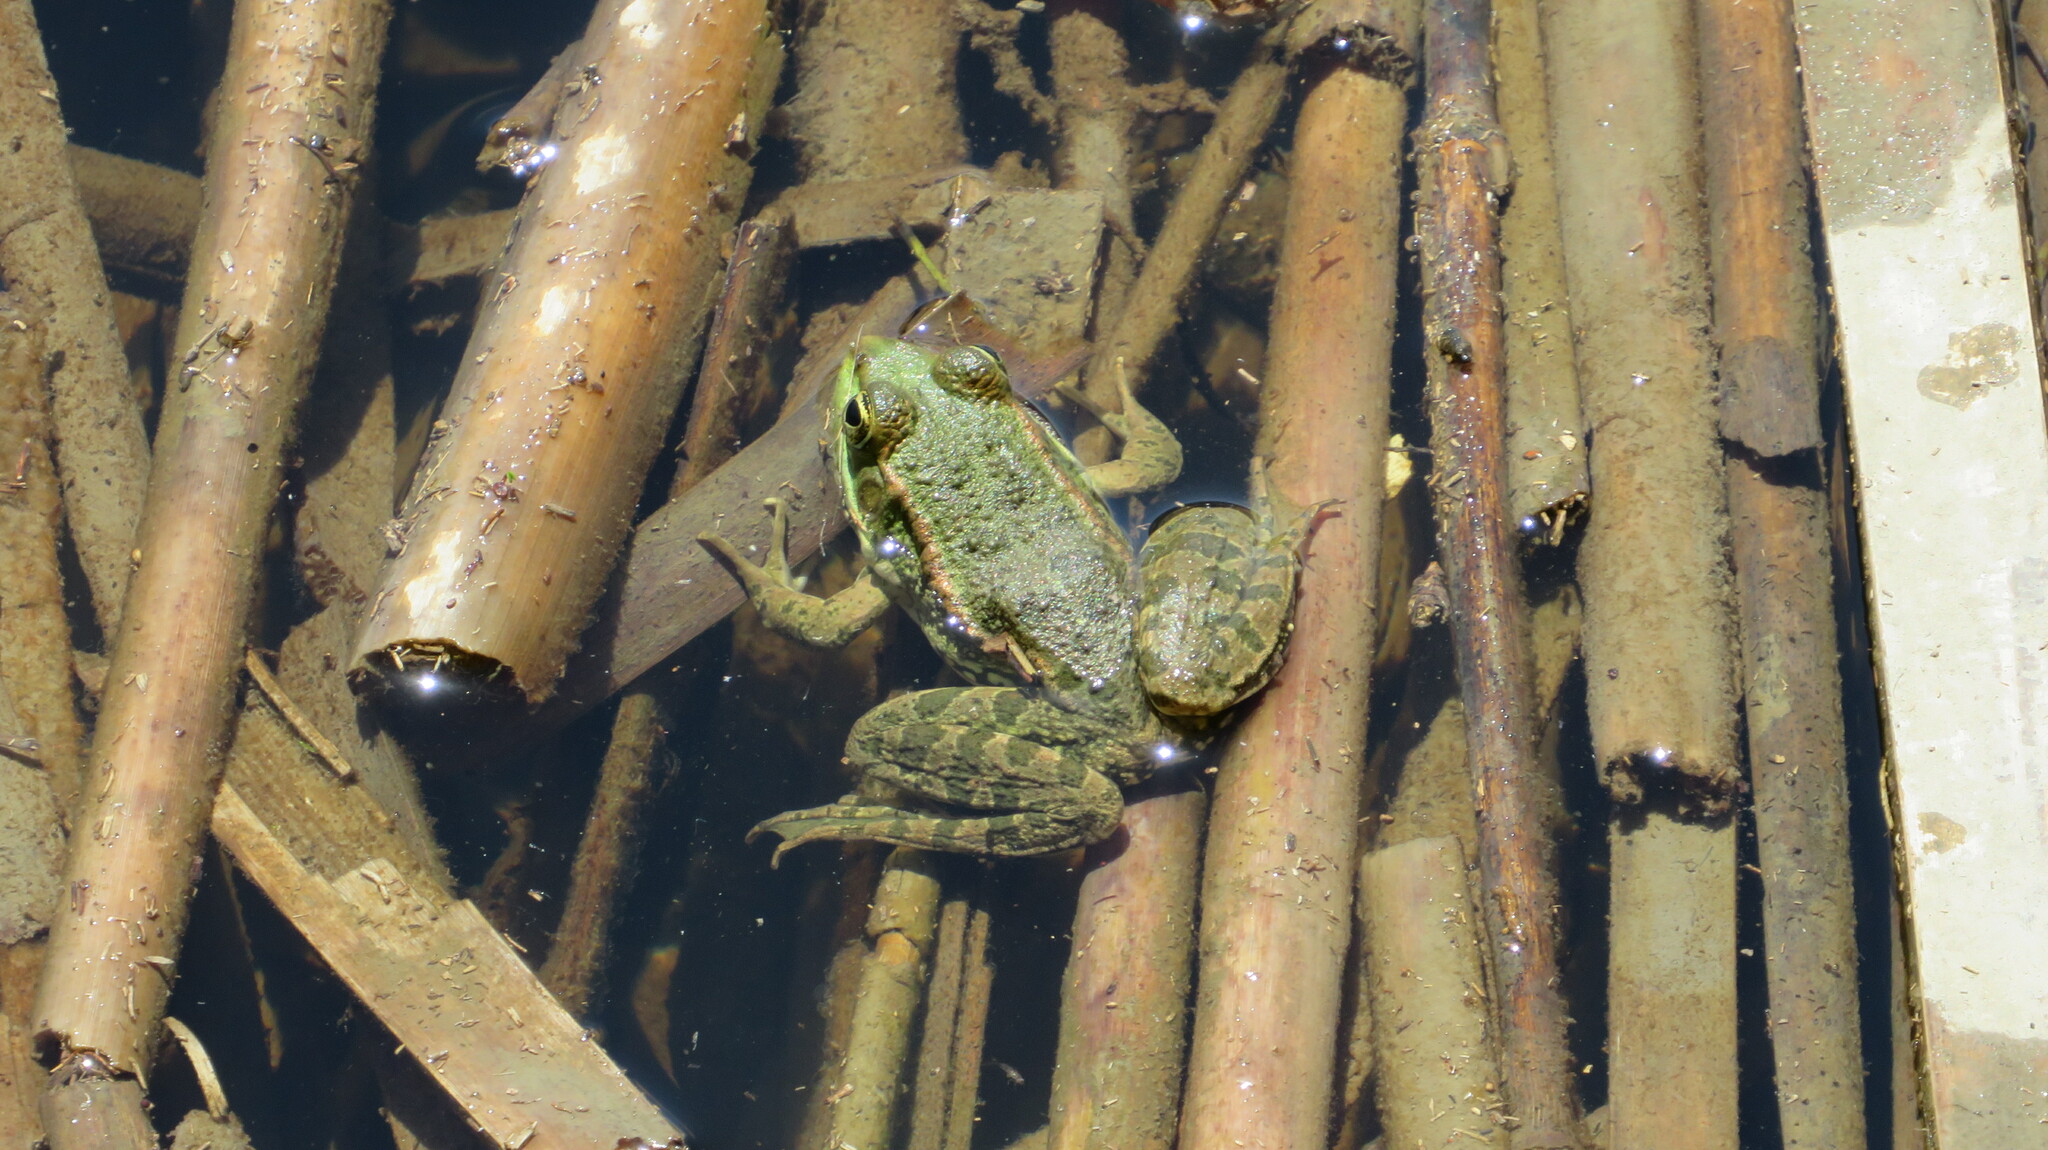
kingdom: Animalia
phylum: Chordata
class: Amphibia
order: Anura
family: Ranidae
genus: Pelophylax
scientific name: Pelophylax ridibundus
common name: Marsh frog
